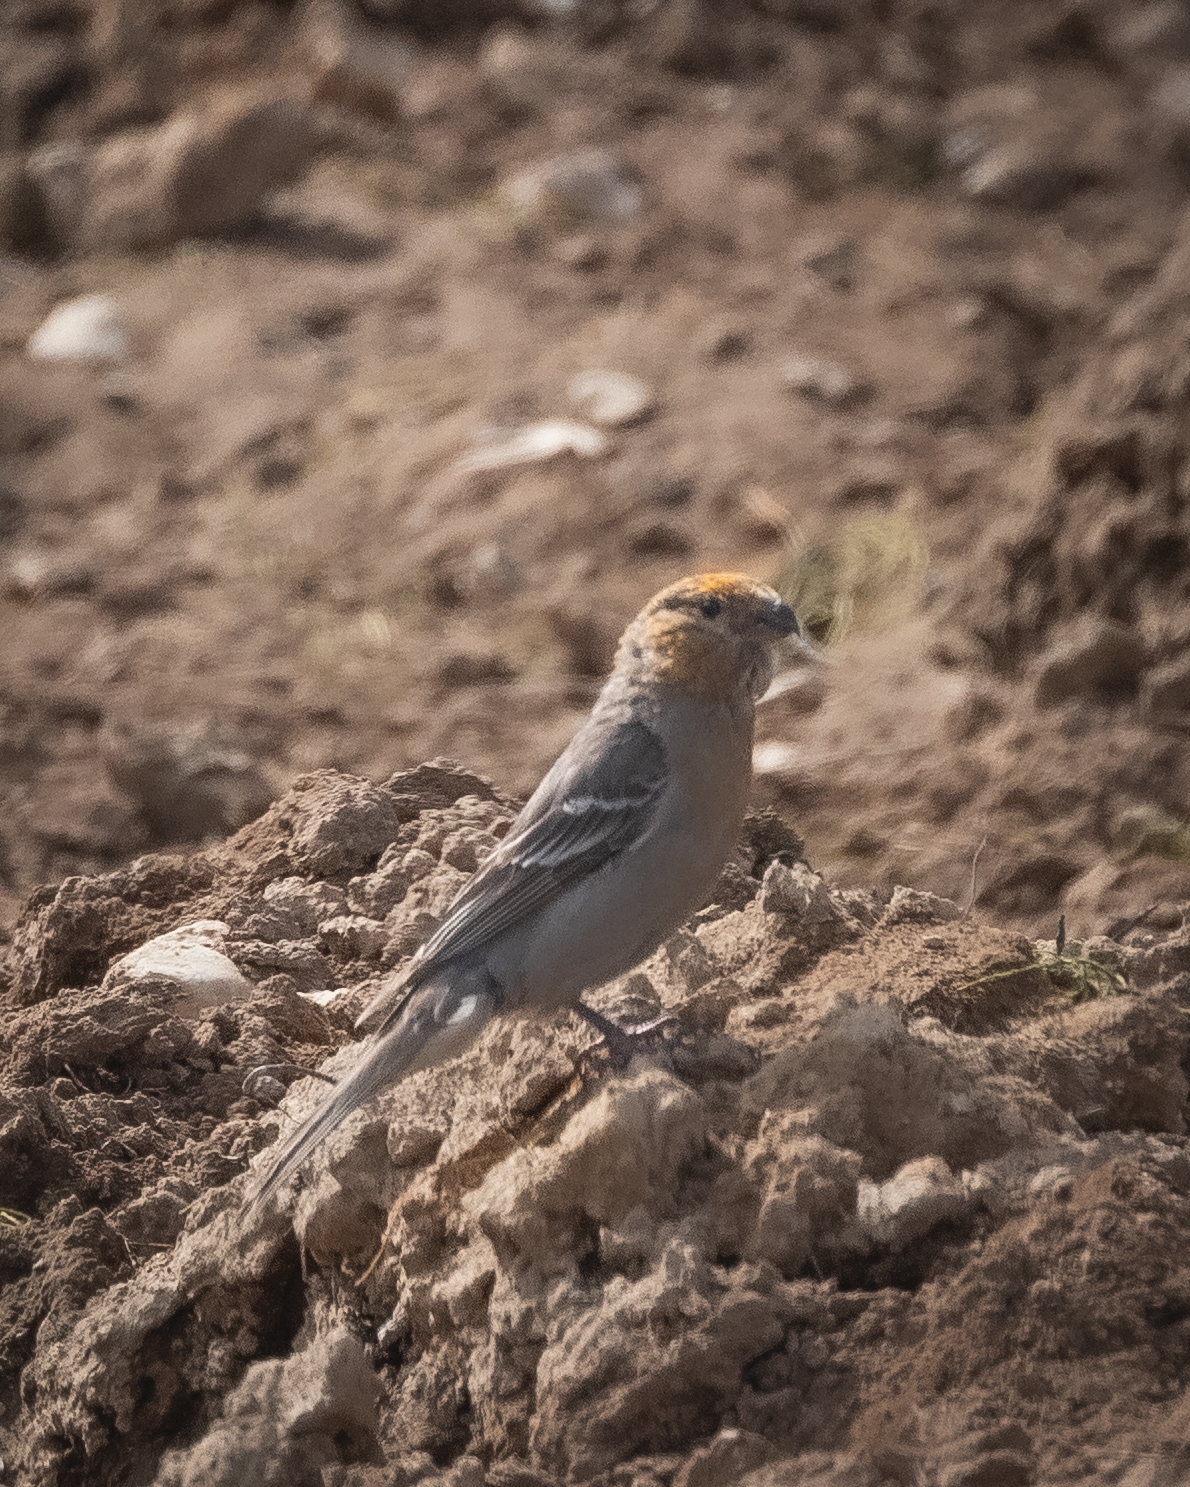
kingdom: Animalia
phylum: Chordata
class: Aves
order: Passeriformes
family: Fringillidae
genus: Pinicola
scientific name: Pinicola enucleator
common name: Pine grosbeak
